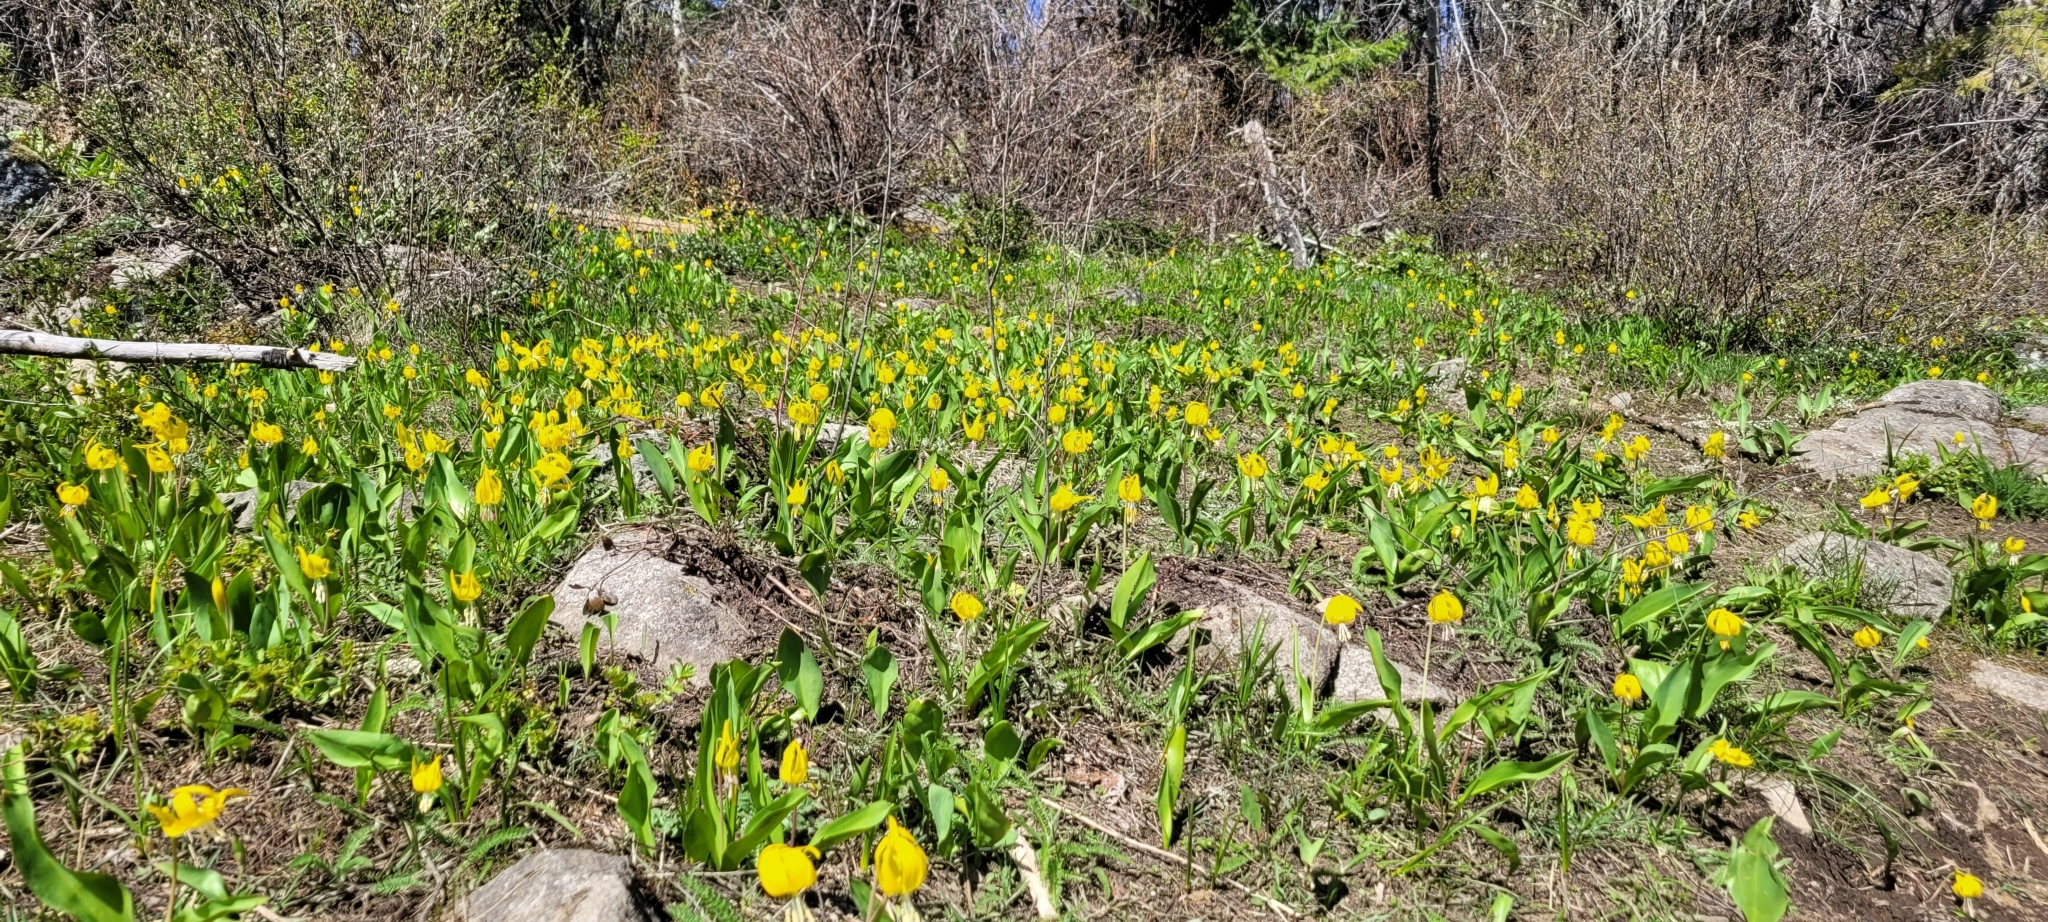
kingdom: Plantae
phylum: Tracheophyta
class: Liliopsida
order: Liliales
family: Liliaceae
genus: Erythronium
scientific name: Erythronium grandiflorum
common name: Avalanche-lily
